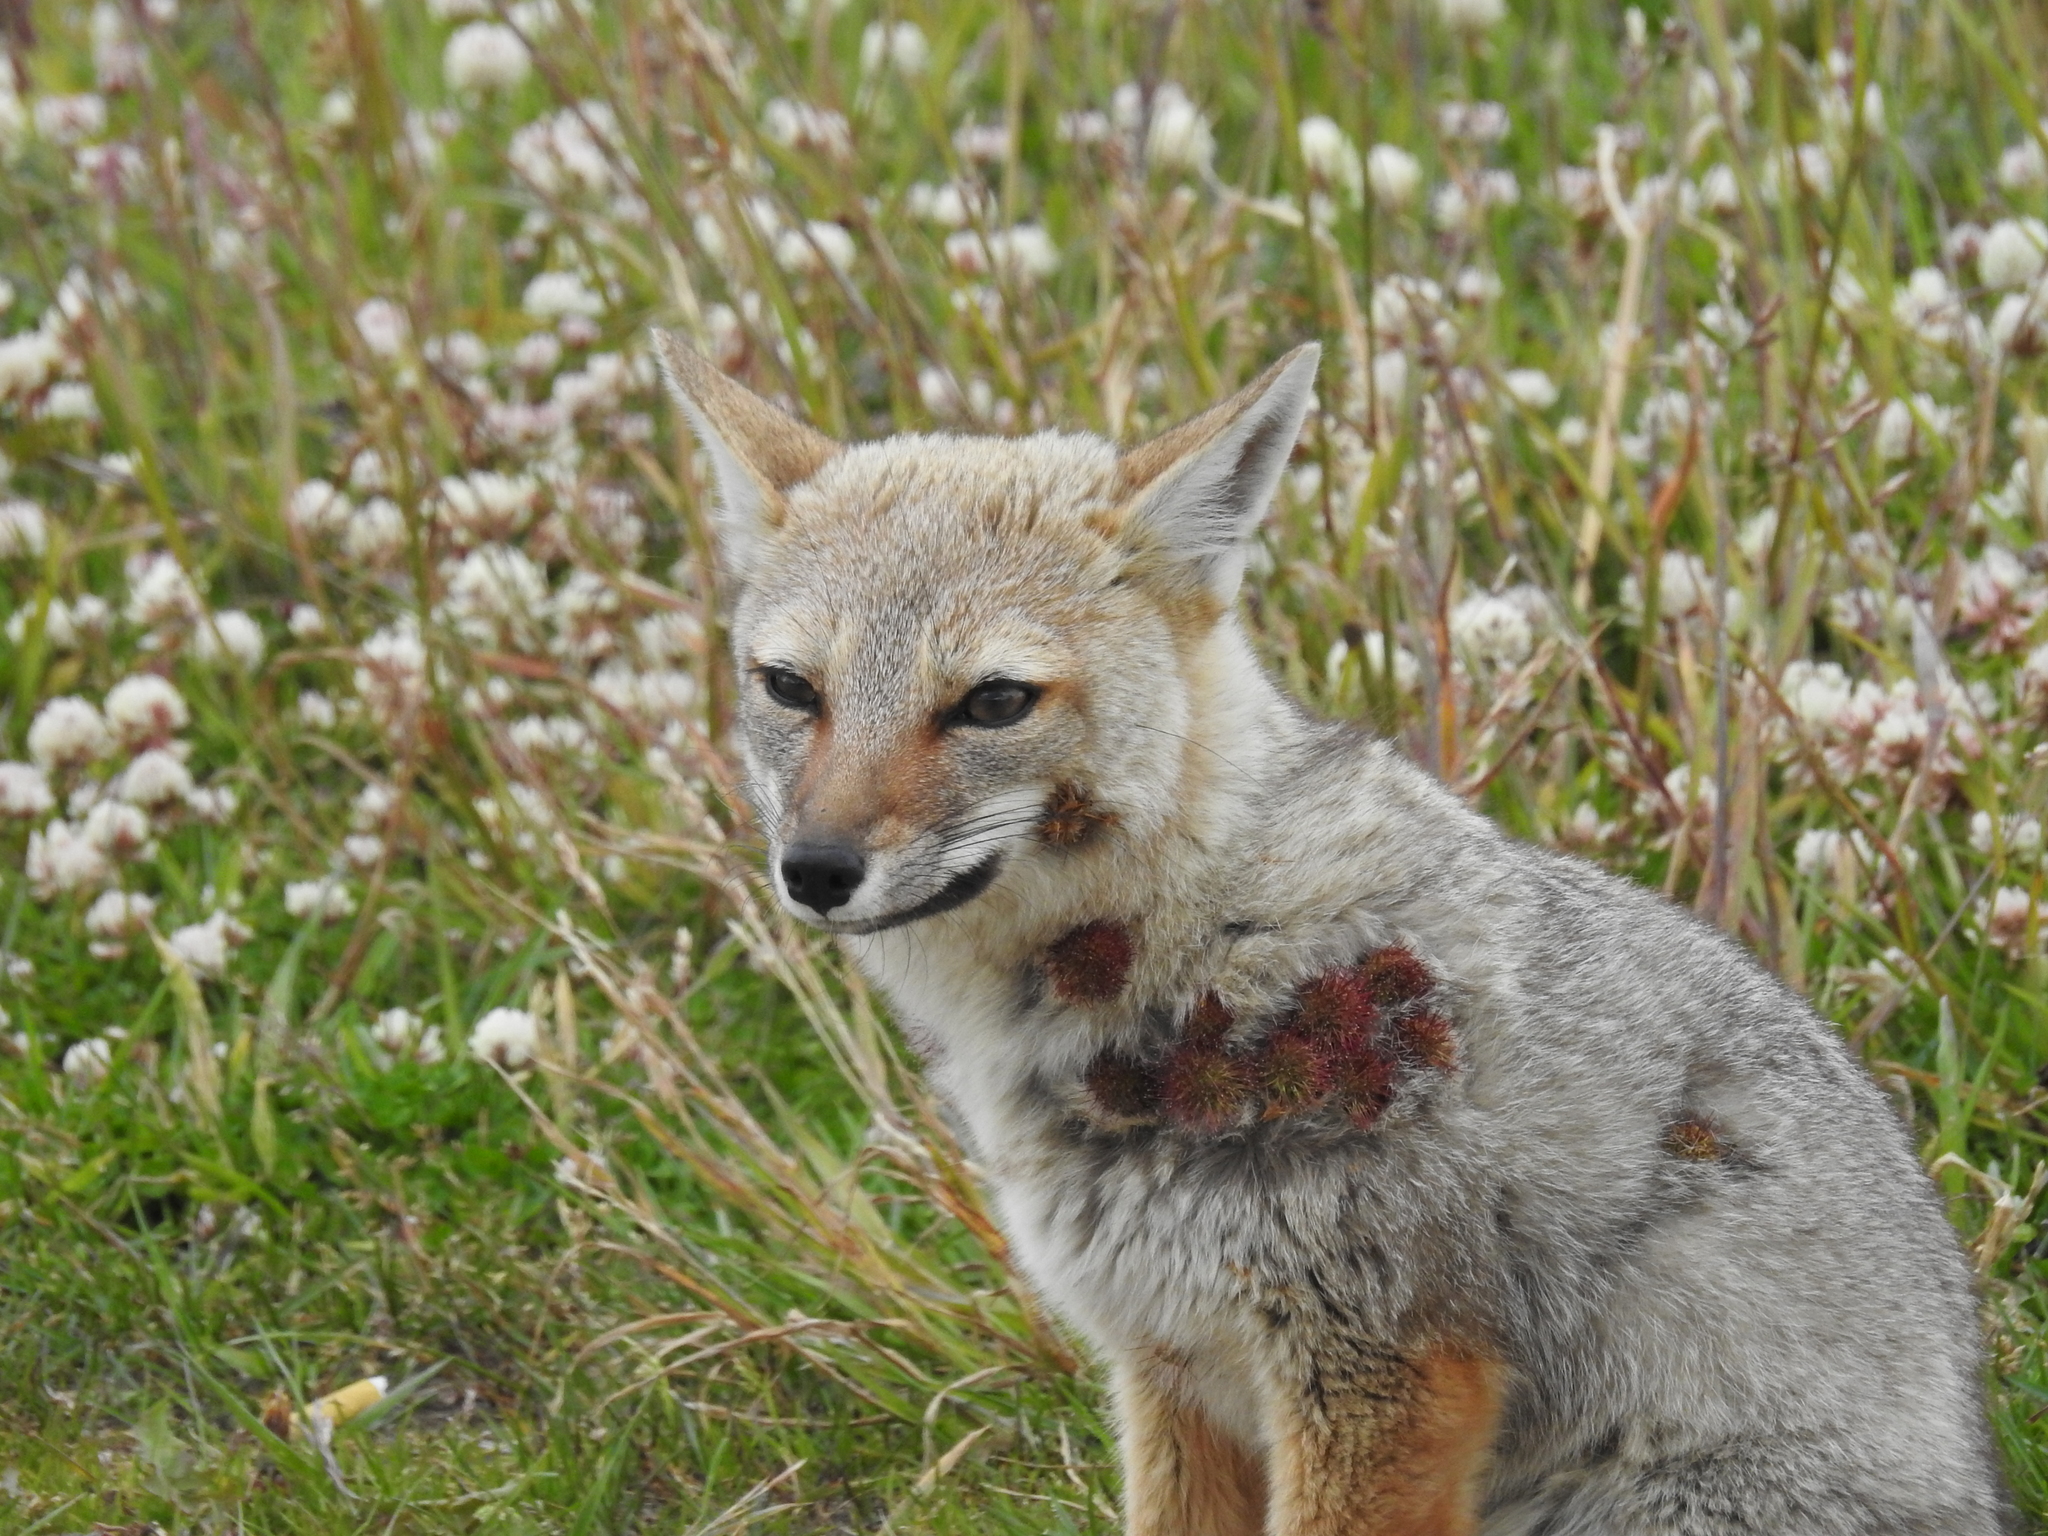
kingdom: Animalia
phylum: Chordata
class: Mammalia
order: Carnivora
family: Canidae
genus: Lycalopex
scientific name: Lycalopex gymnocercus
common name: Pampas fox
